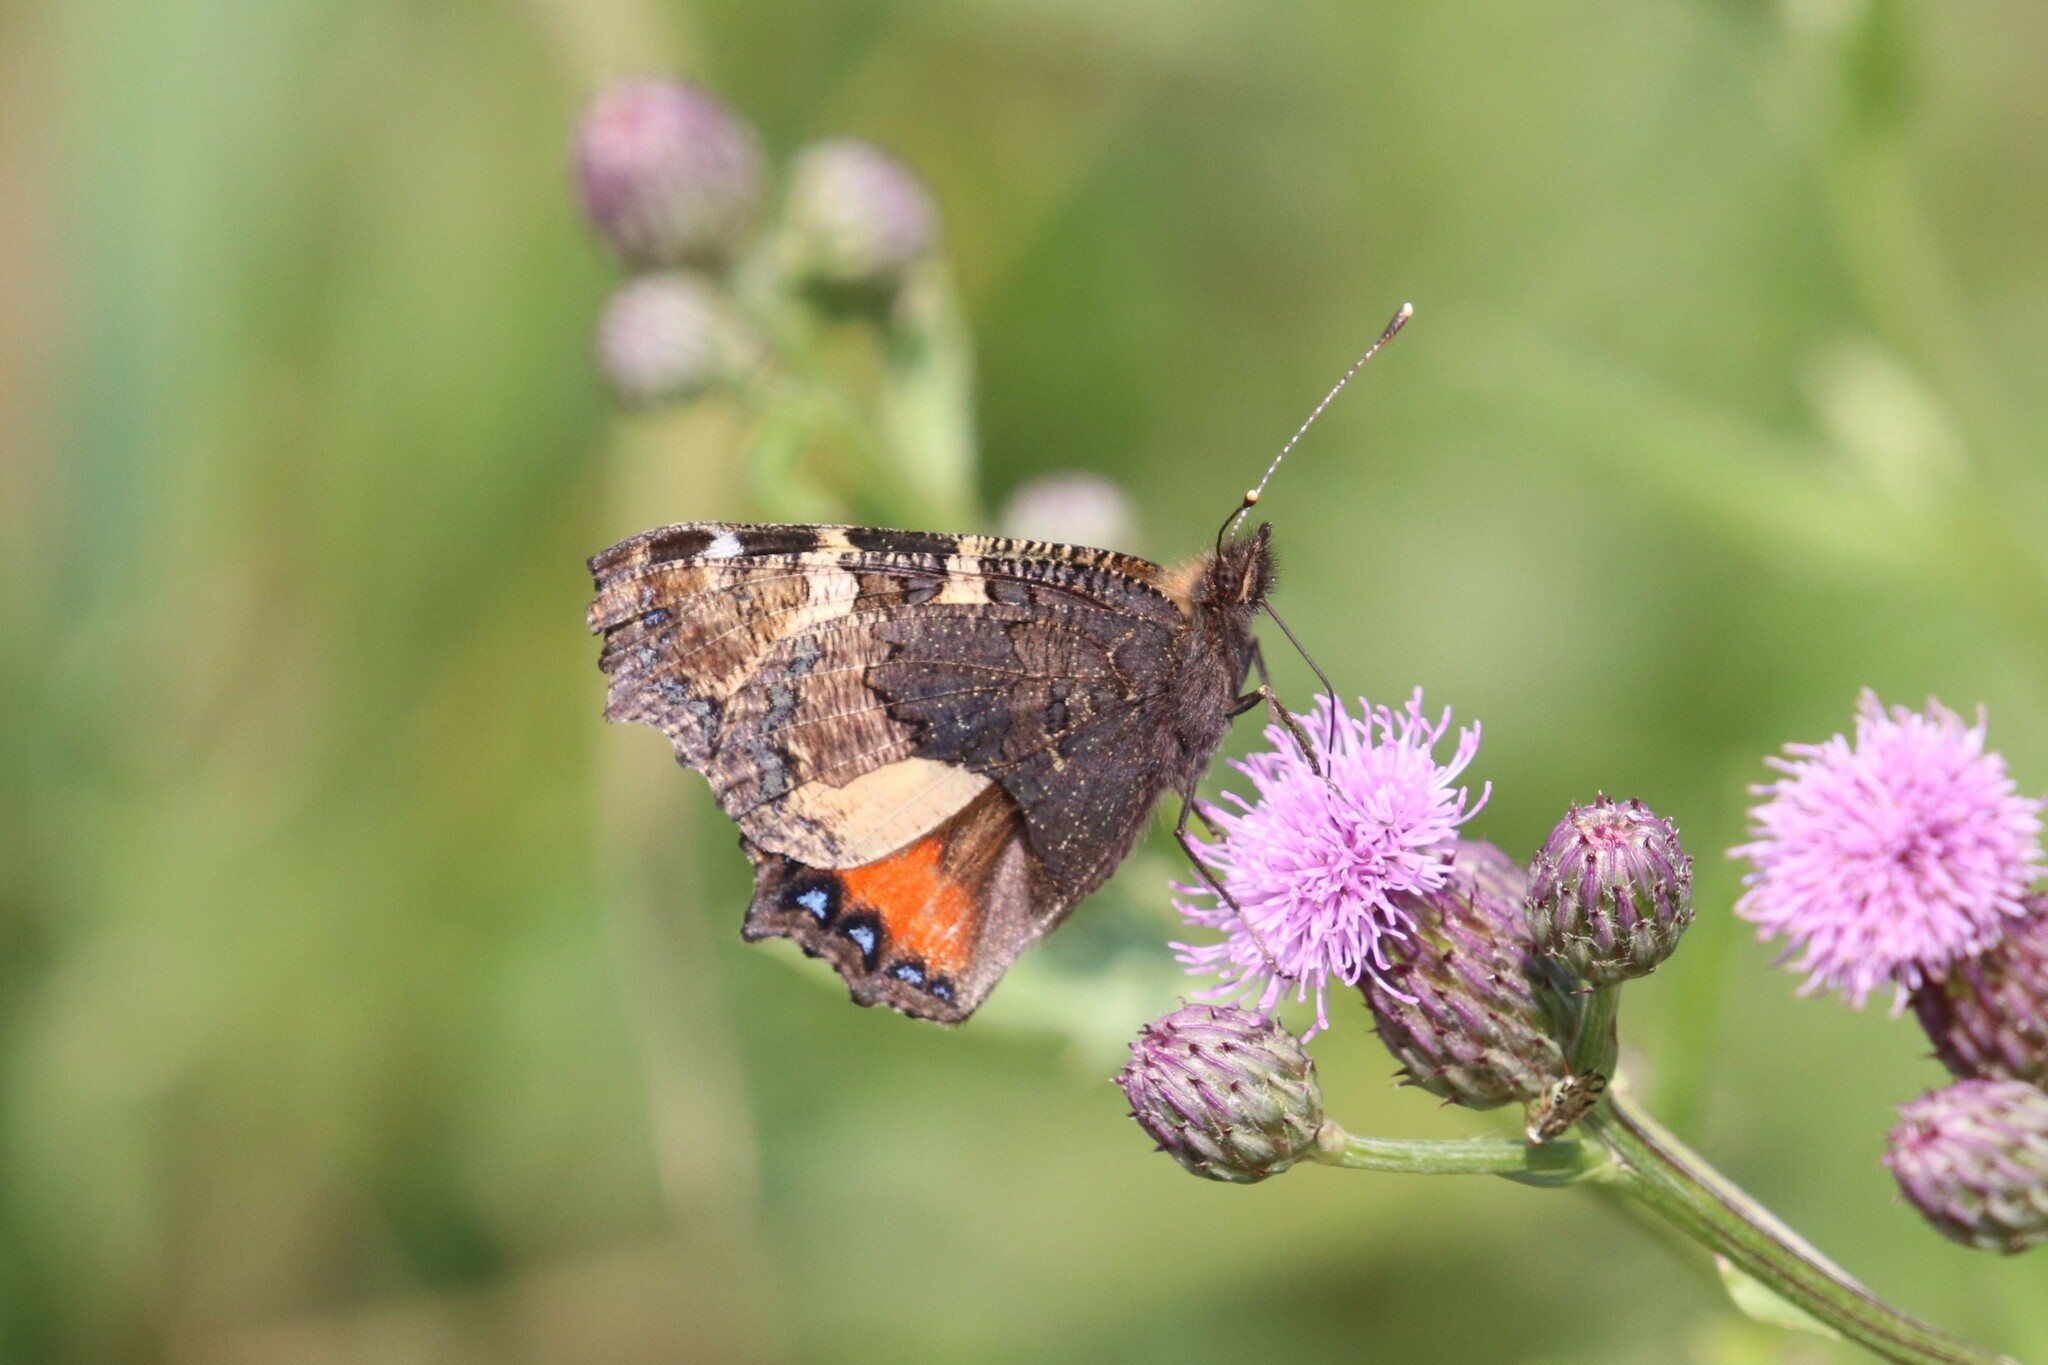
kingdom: Animalia
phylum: Arthropoda
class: Insecta
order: Lepidoptera
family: Nymphalidae
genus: Aglais
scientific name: Aglais urticae
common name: Small tortoiseshell
